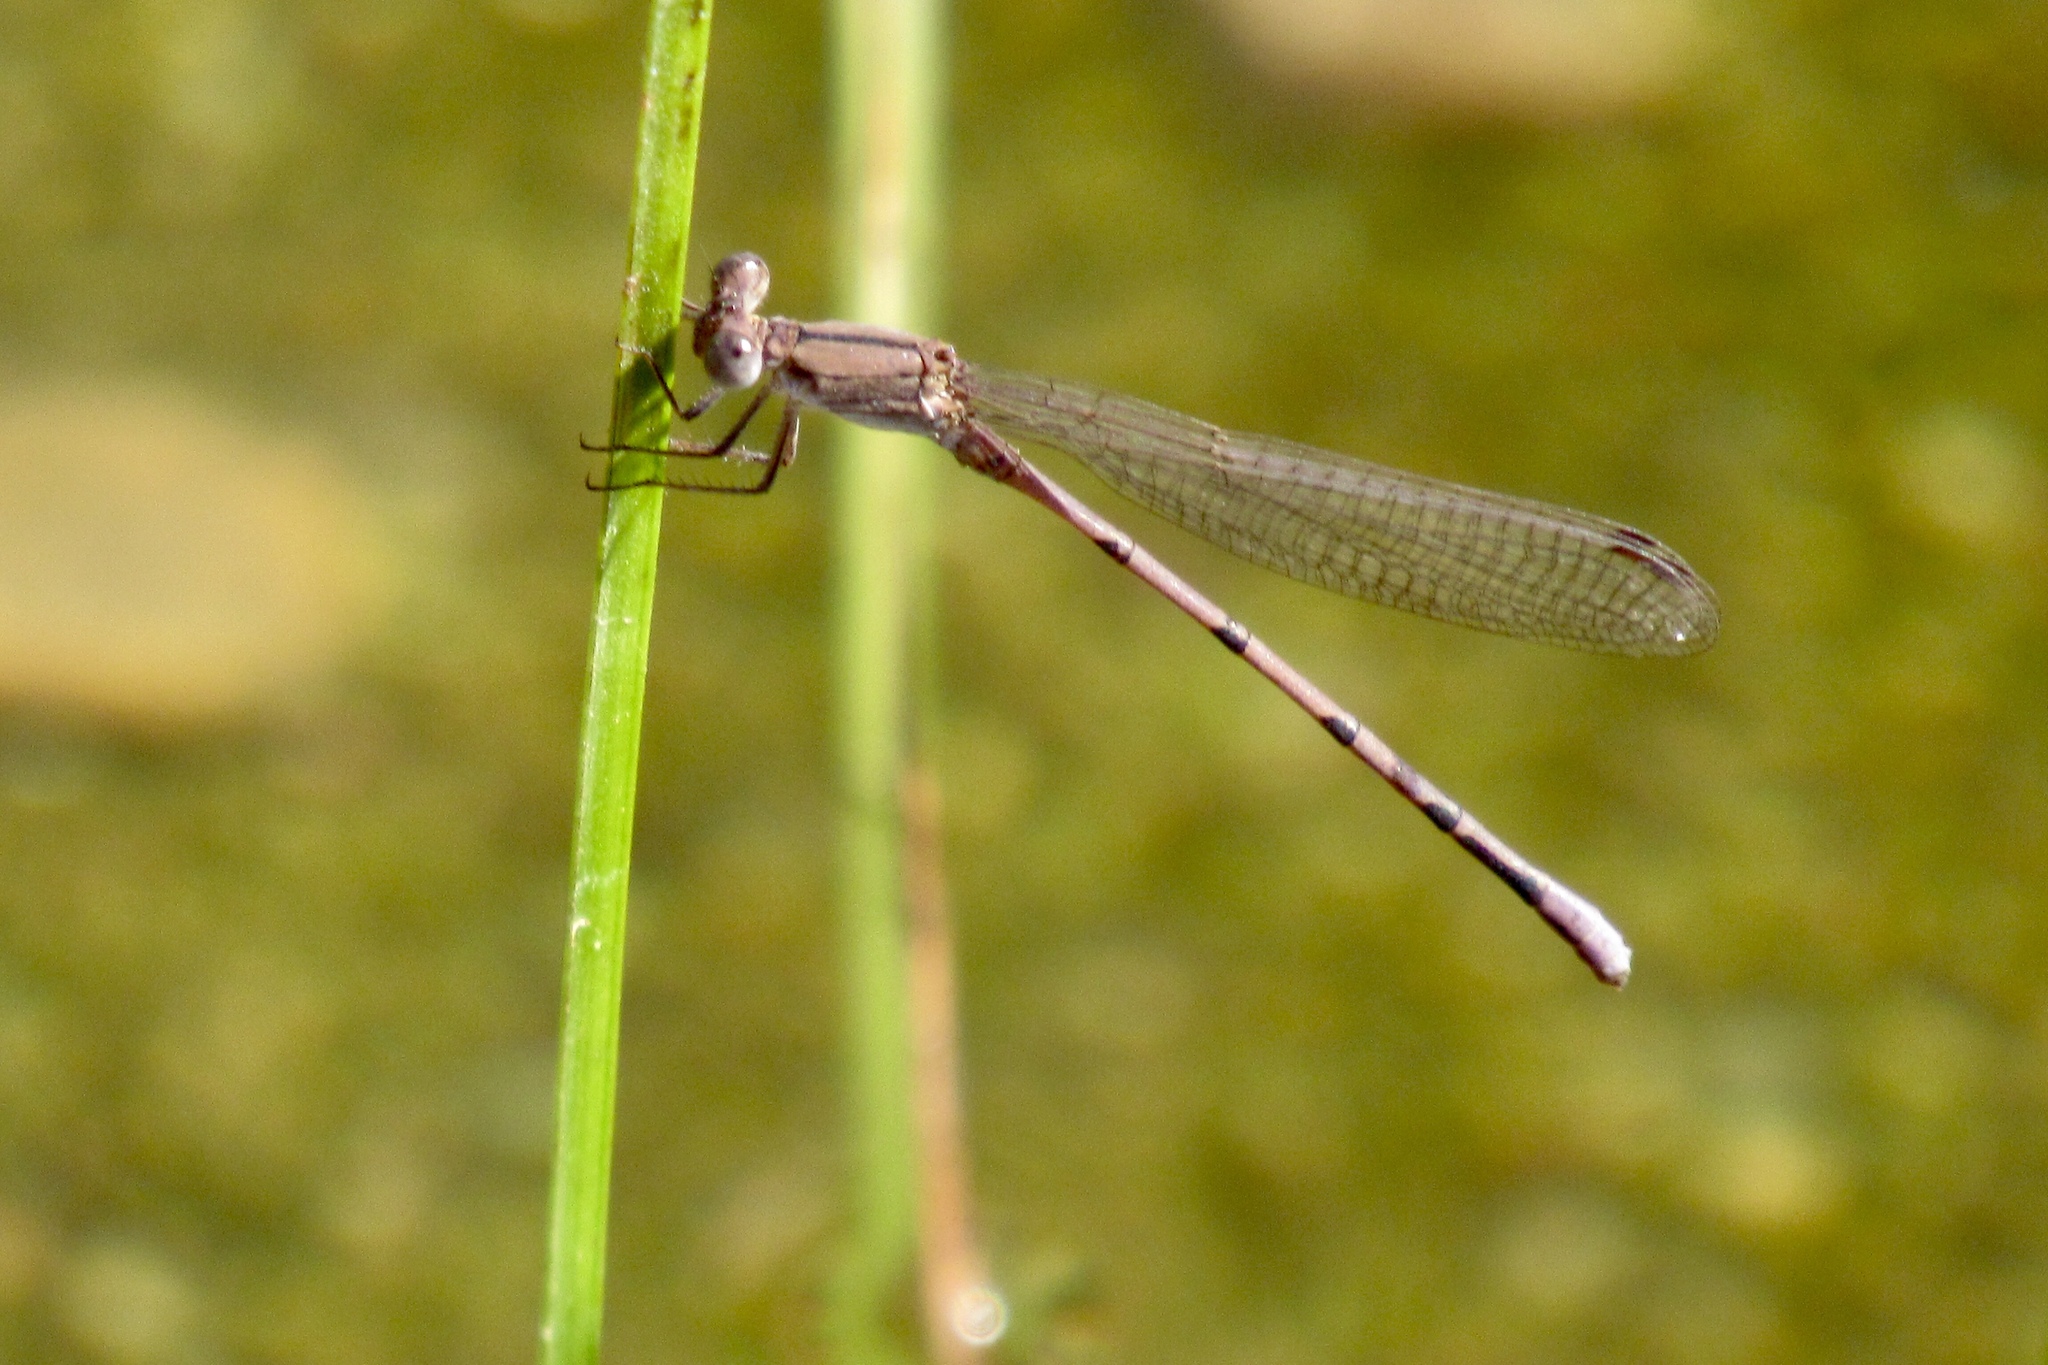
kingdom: Animalia
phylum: Arthropoda
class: Insecta
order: Odonata
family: Coenagrionidae
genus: Argia
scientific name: Argia pallens
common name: Amethyst dancer
